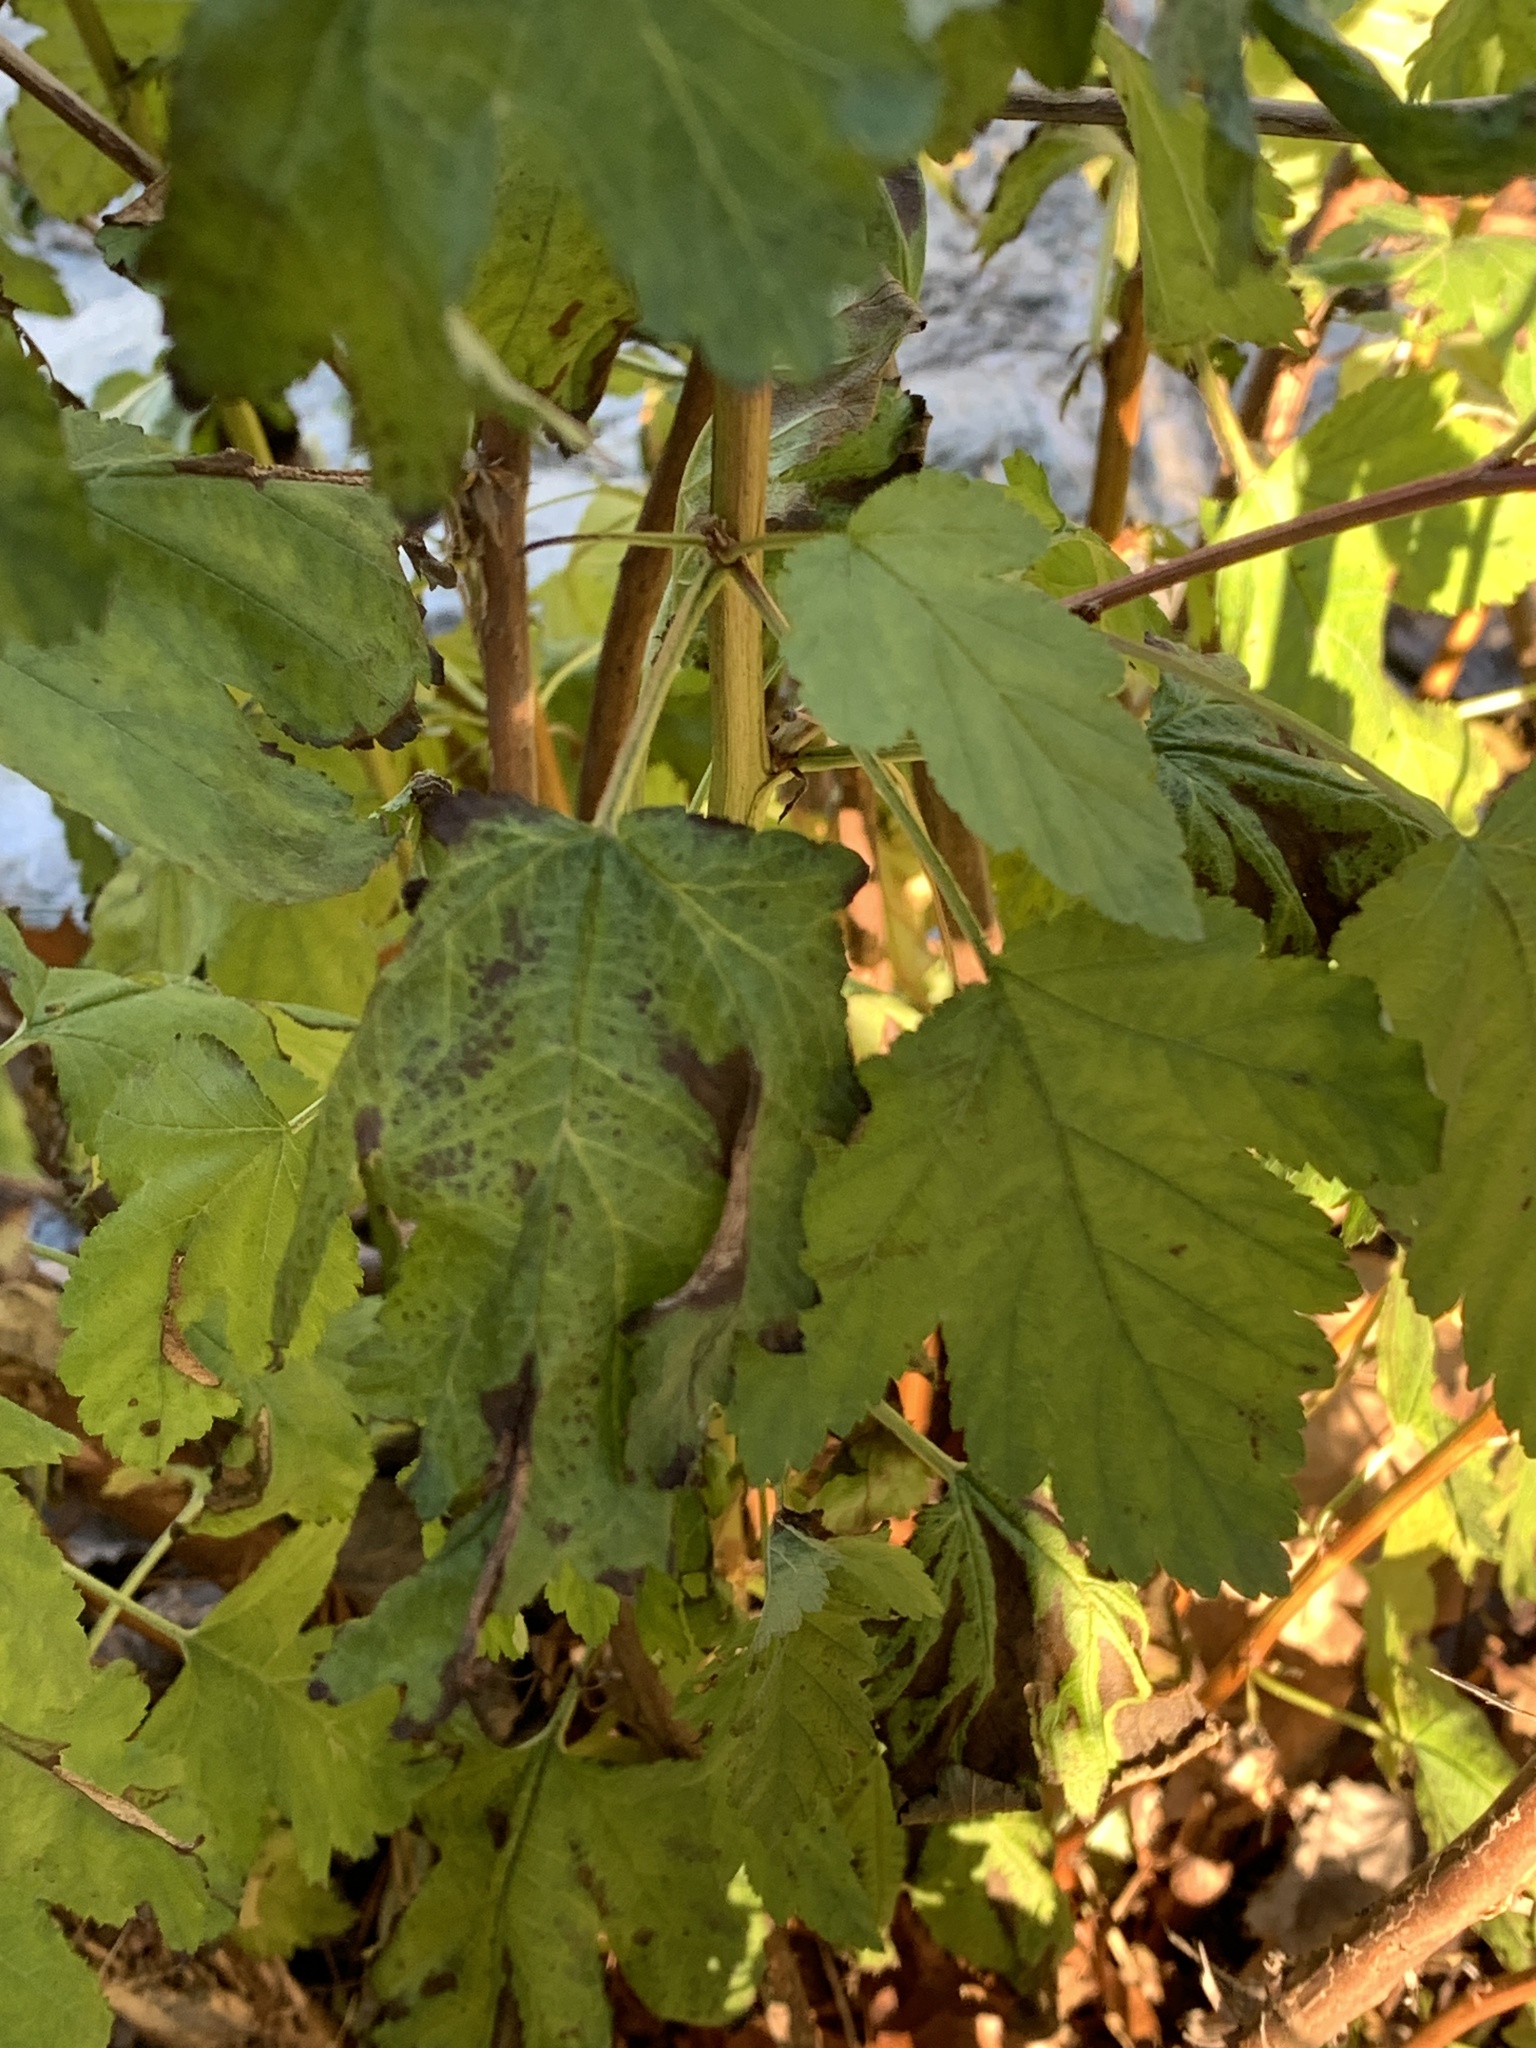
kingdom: Plantae
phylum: Tracheophyta
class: Magnoliopsida
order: Rosales
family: Rosaceae
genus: Physocarpus
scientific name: Physocarpus opulifolius
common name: Ninebark
